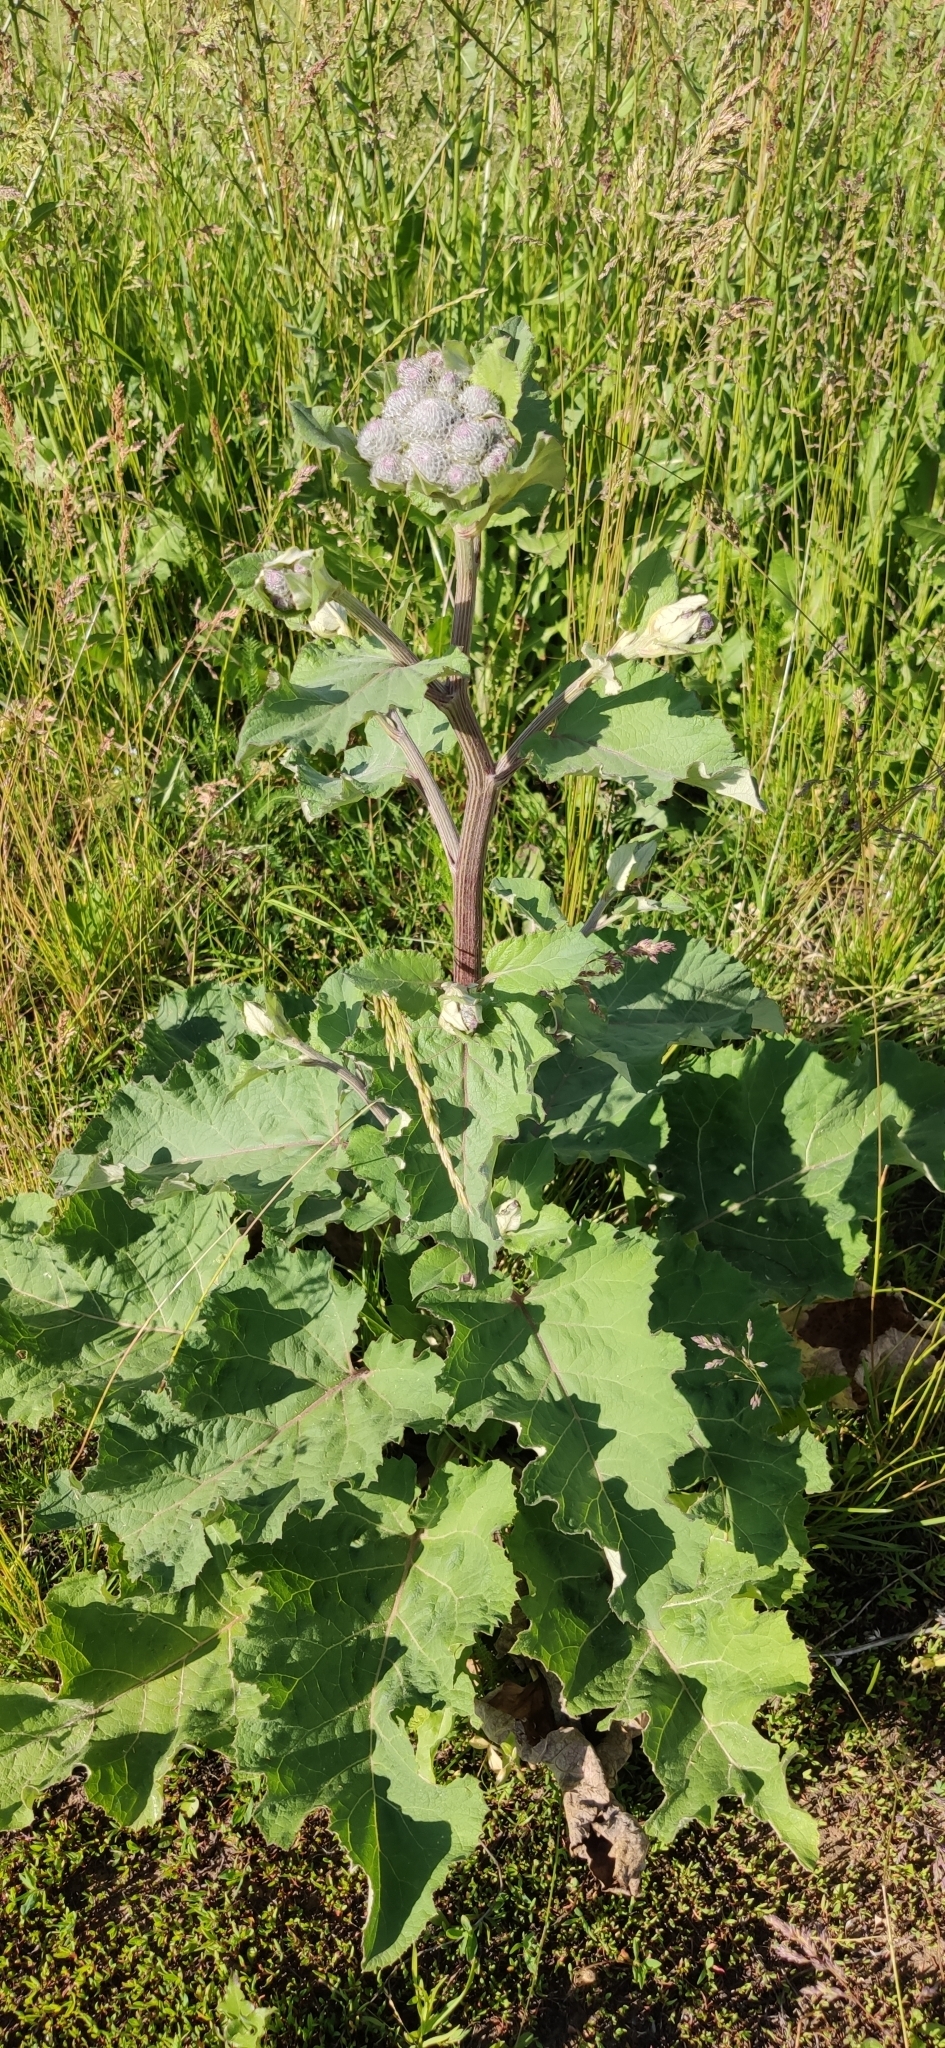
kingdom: Plantae
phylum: Tracheophyta
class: Magnoliopsida
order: Asterales
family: Asteraceae
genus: Arctium
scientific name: Arctium tomentosum
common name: Woolly burdock
